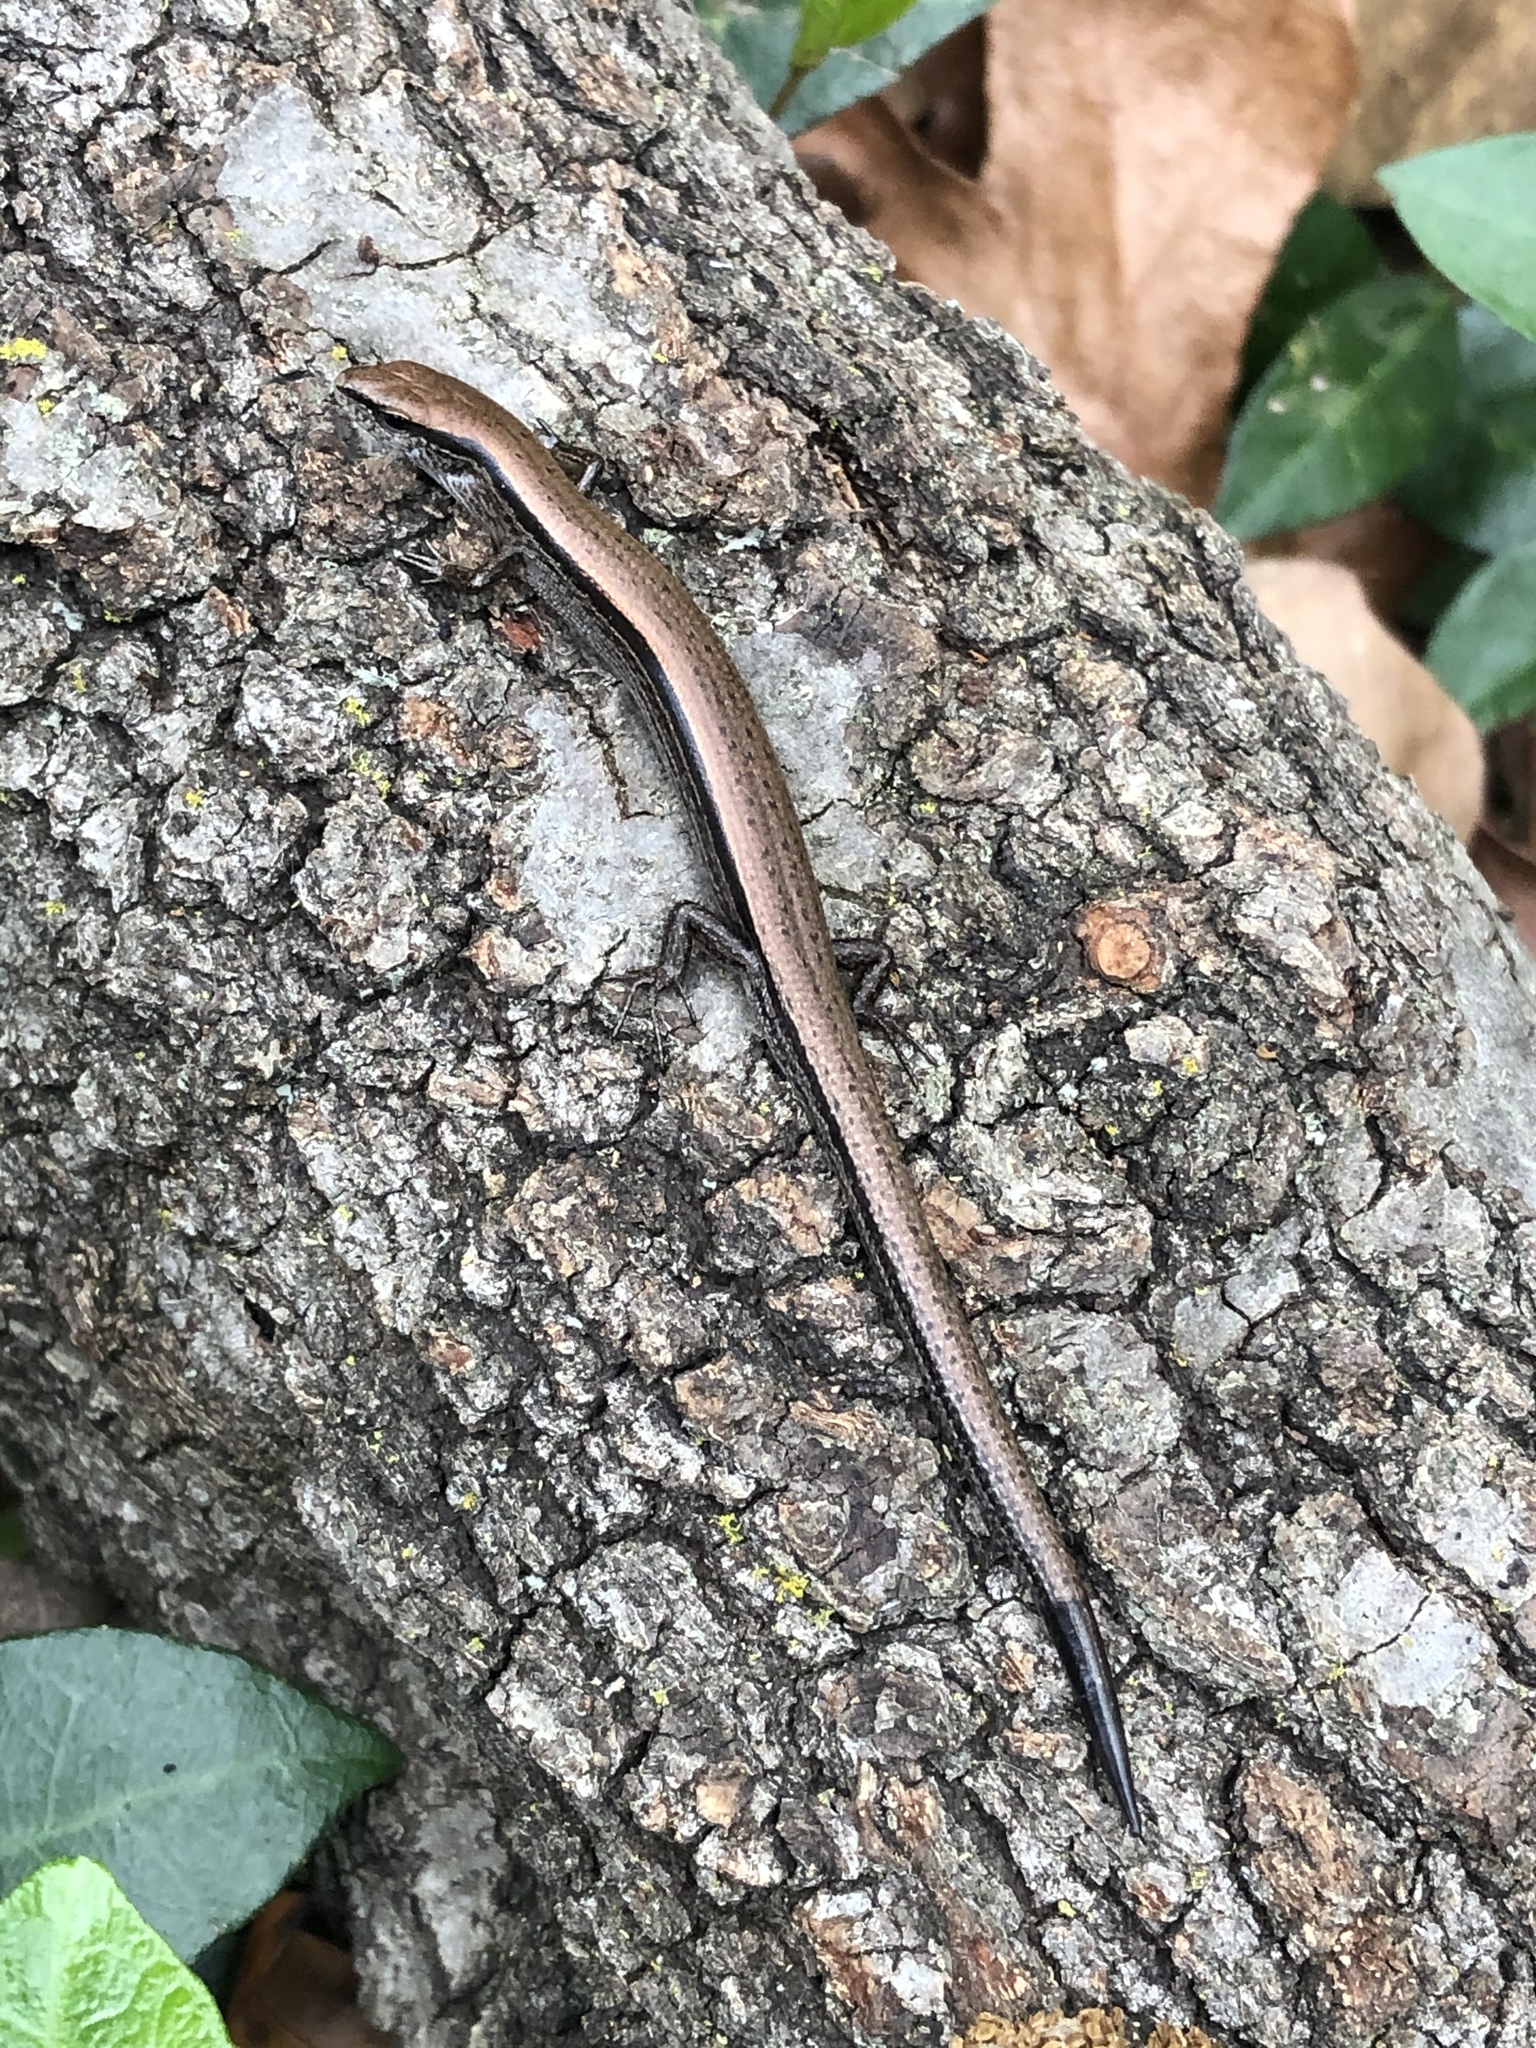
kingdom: Animalia
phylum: Chordata
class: Squamata
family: Scincidae
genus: Scincella
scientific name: Scincella lateralis
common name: Ground skink
